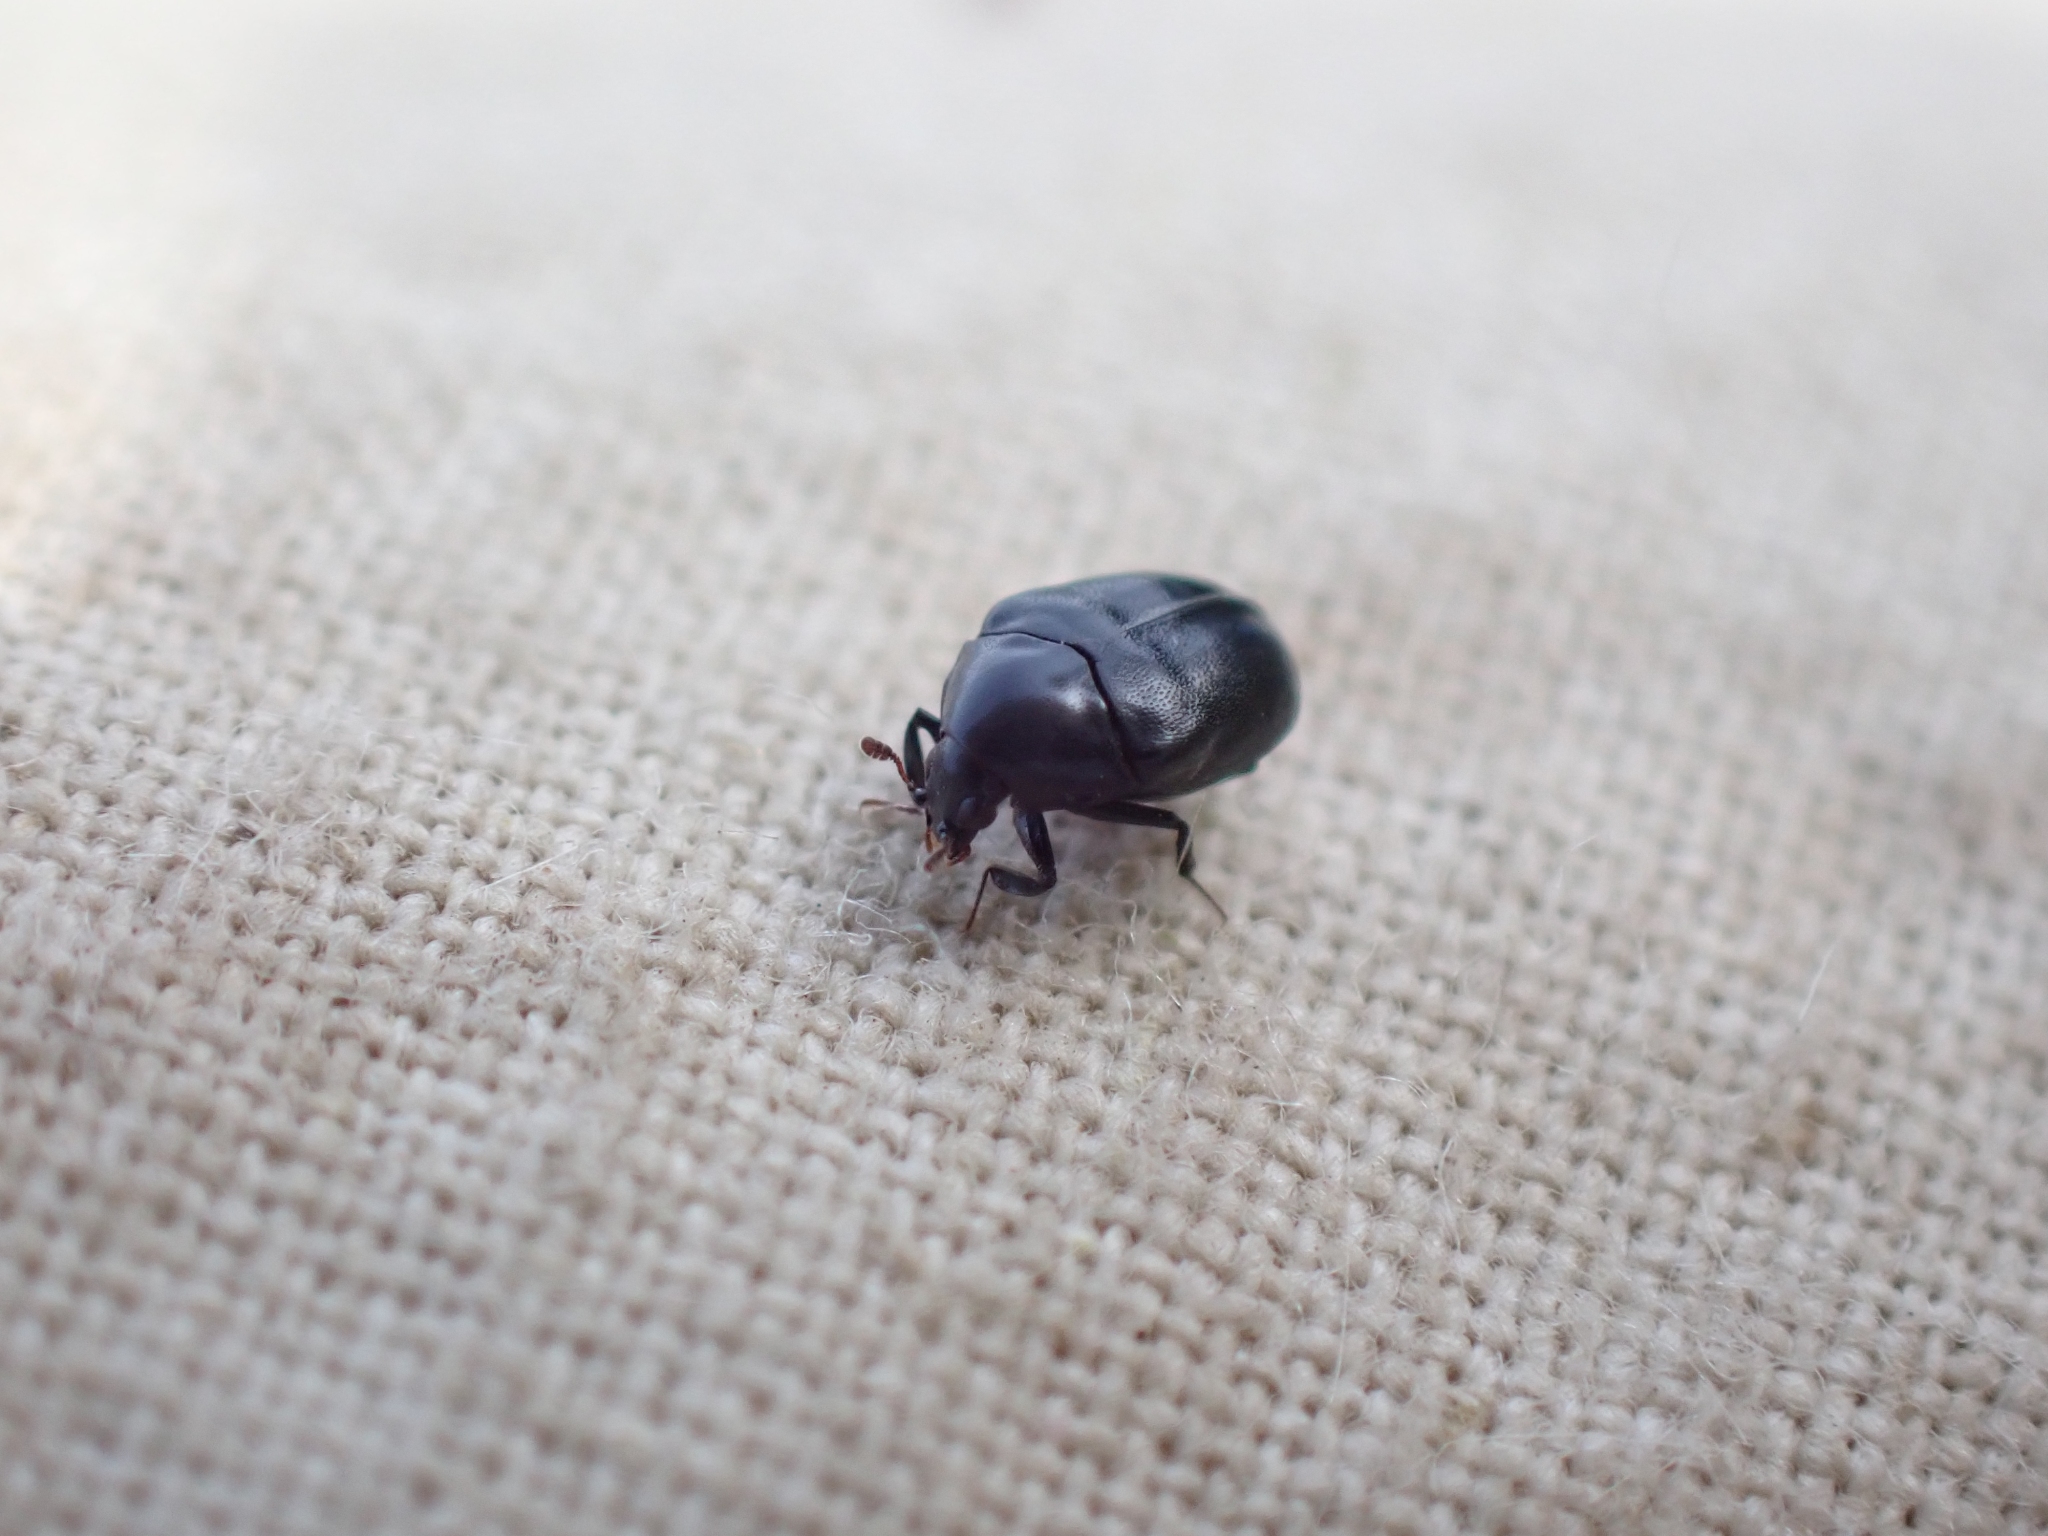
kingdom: Animalia
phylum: Arthropoda
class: Insecta
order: Coleoptera
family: Dermestidae
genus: Orphilus
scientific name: Orphilus subnitidus
